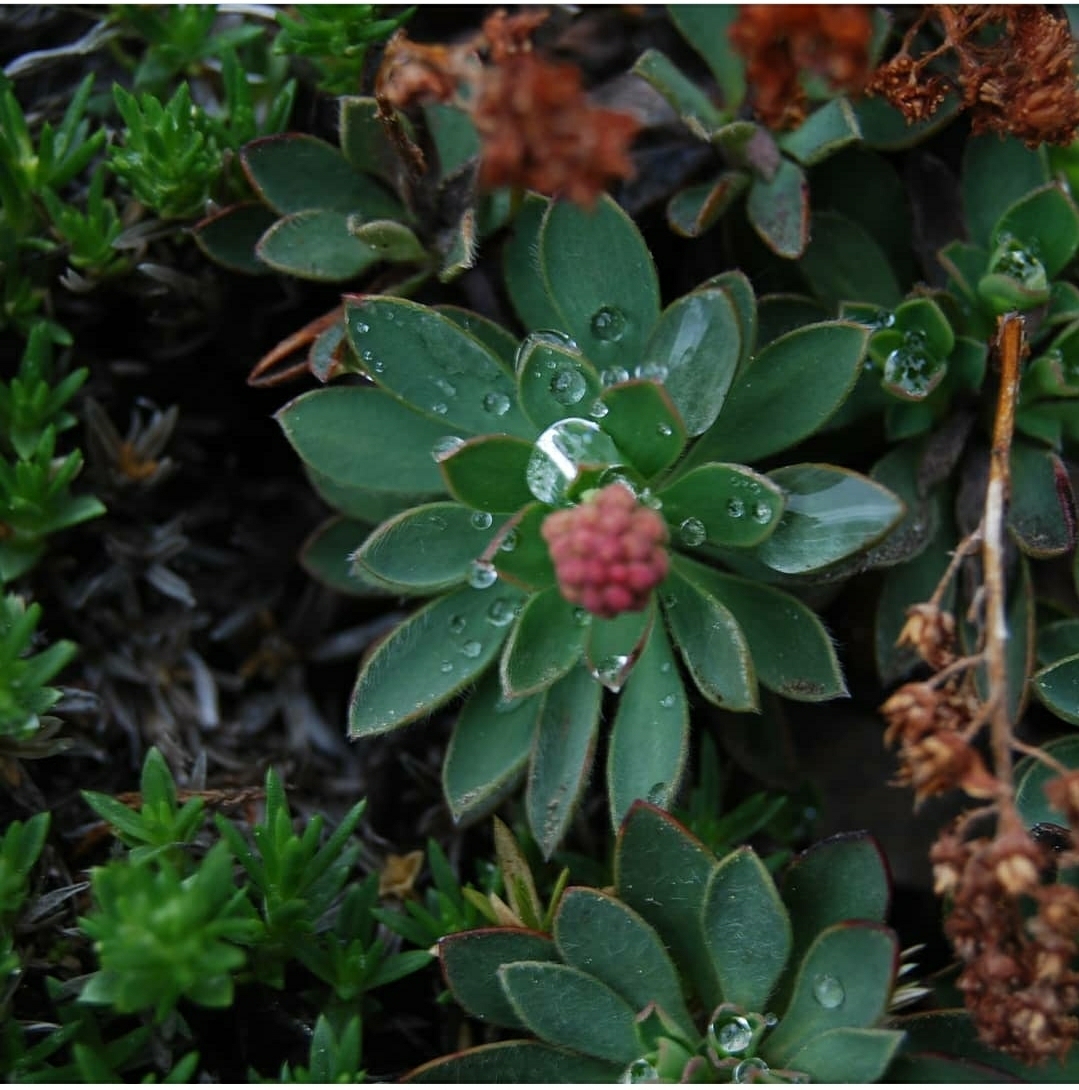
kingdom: Plantae
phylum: Tracheophyta
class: Magnoliopsida
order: Rosales
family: Rosaceae
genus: Petrophytum
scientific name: Petrophytum hendersonii
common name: Olympic mountain rockmat
